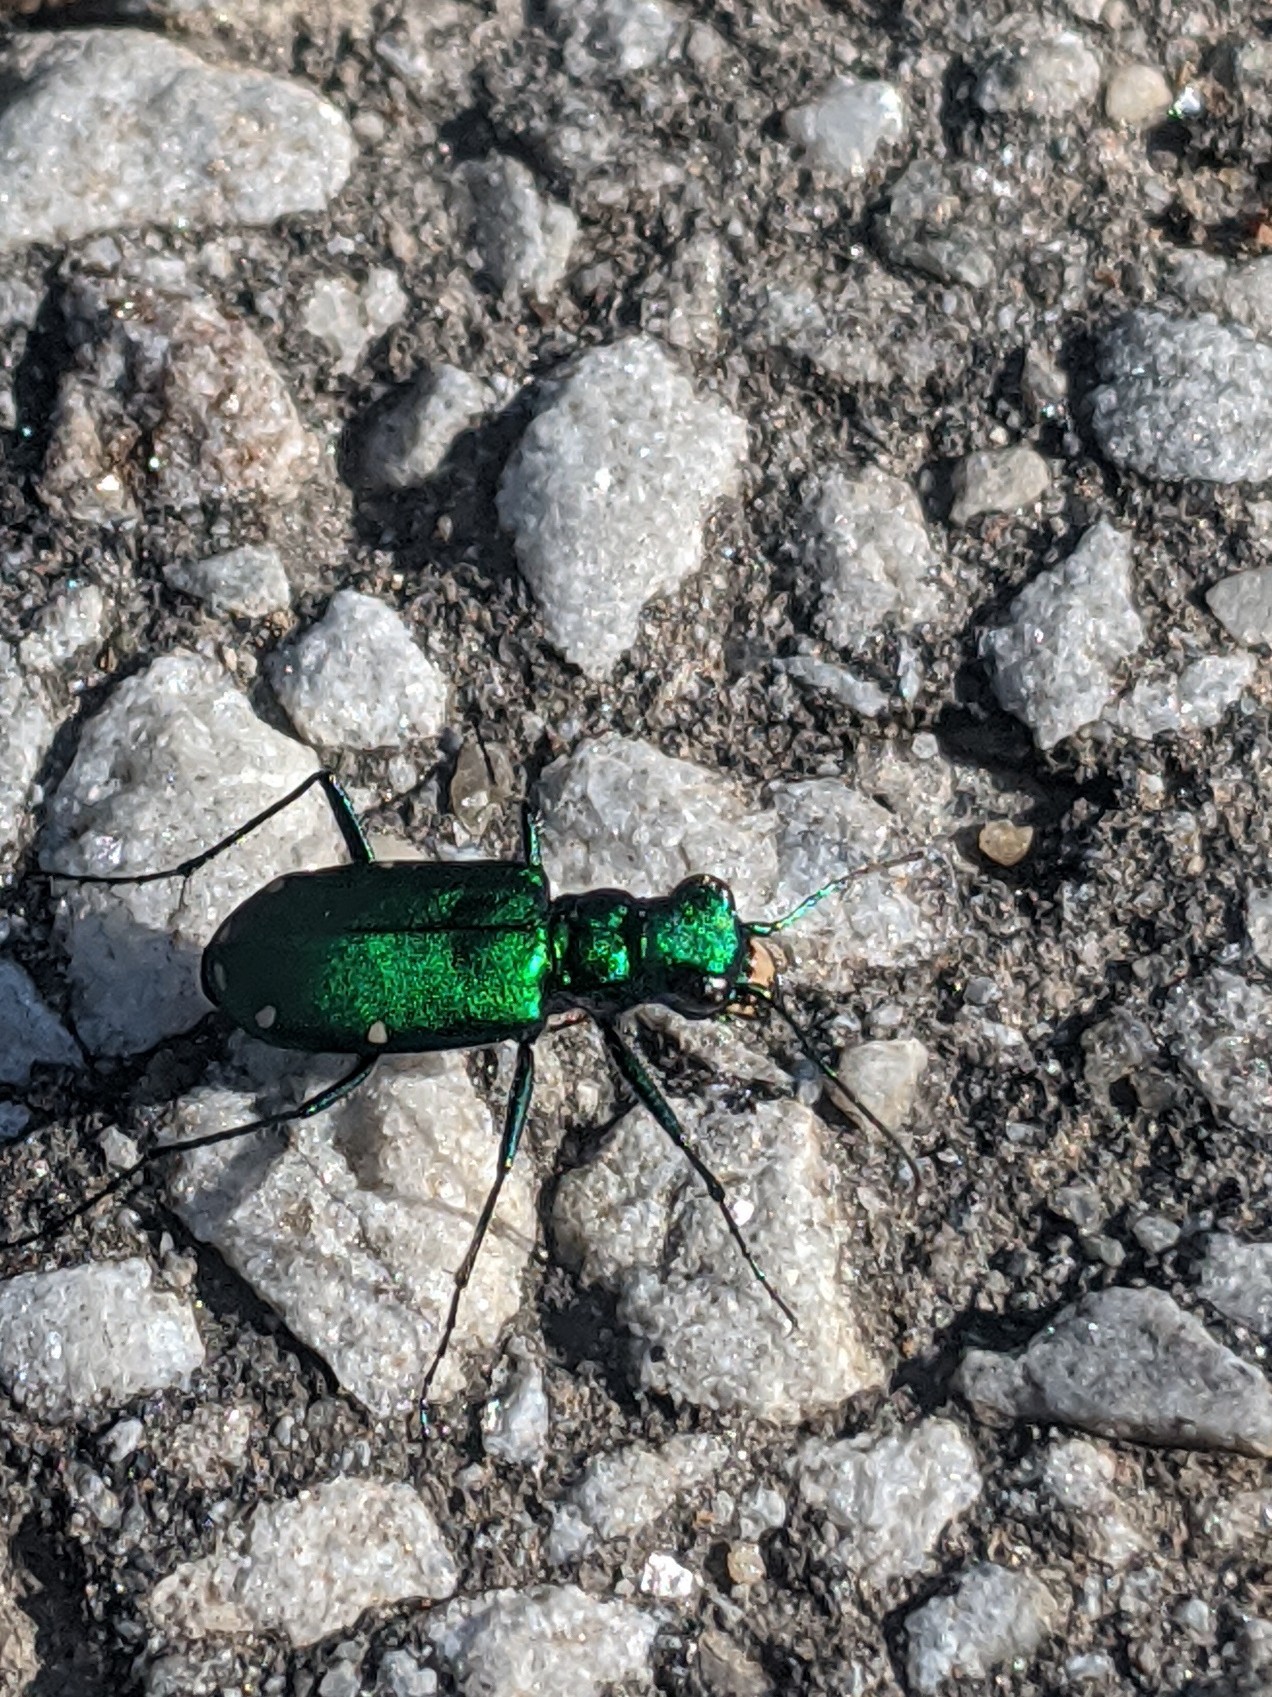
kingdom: Animalia
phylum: Arthropoda
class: Insecta
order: Coleoptera
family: Carabidae
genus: Cicindela
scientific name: Cicindela sexguttata
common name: Six-spotted tiger beetle
